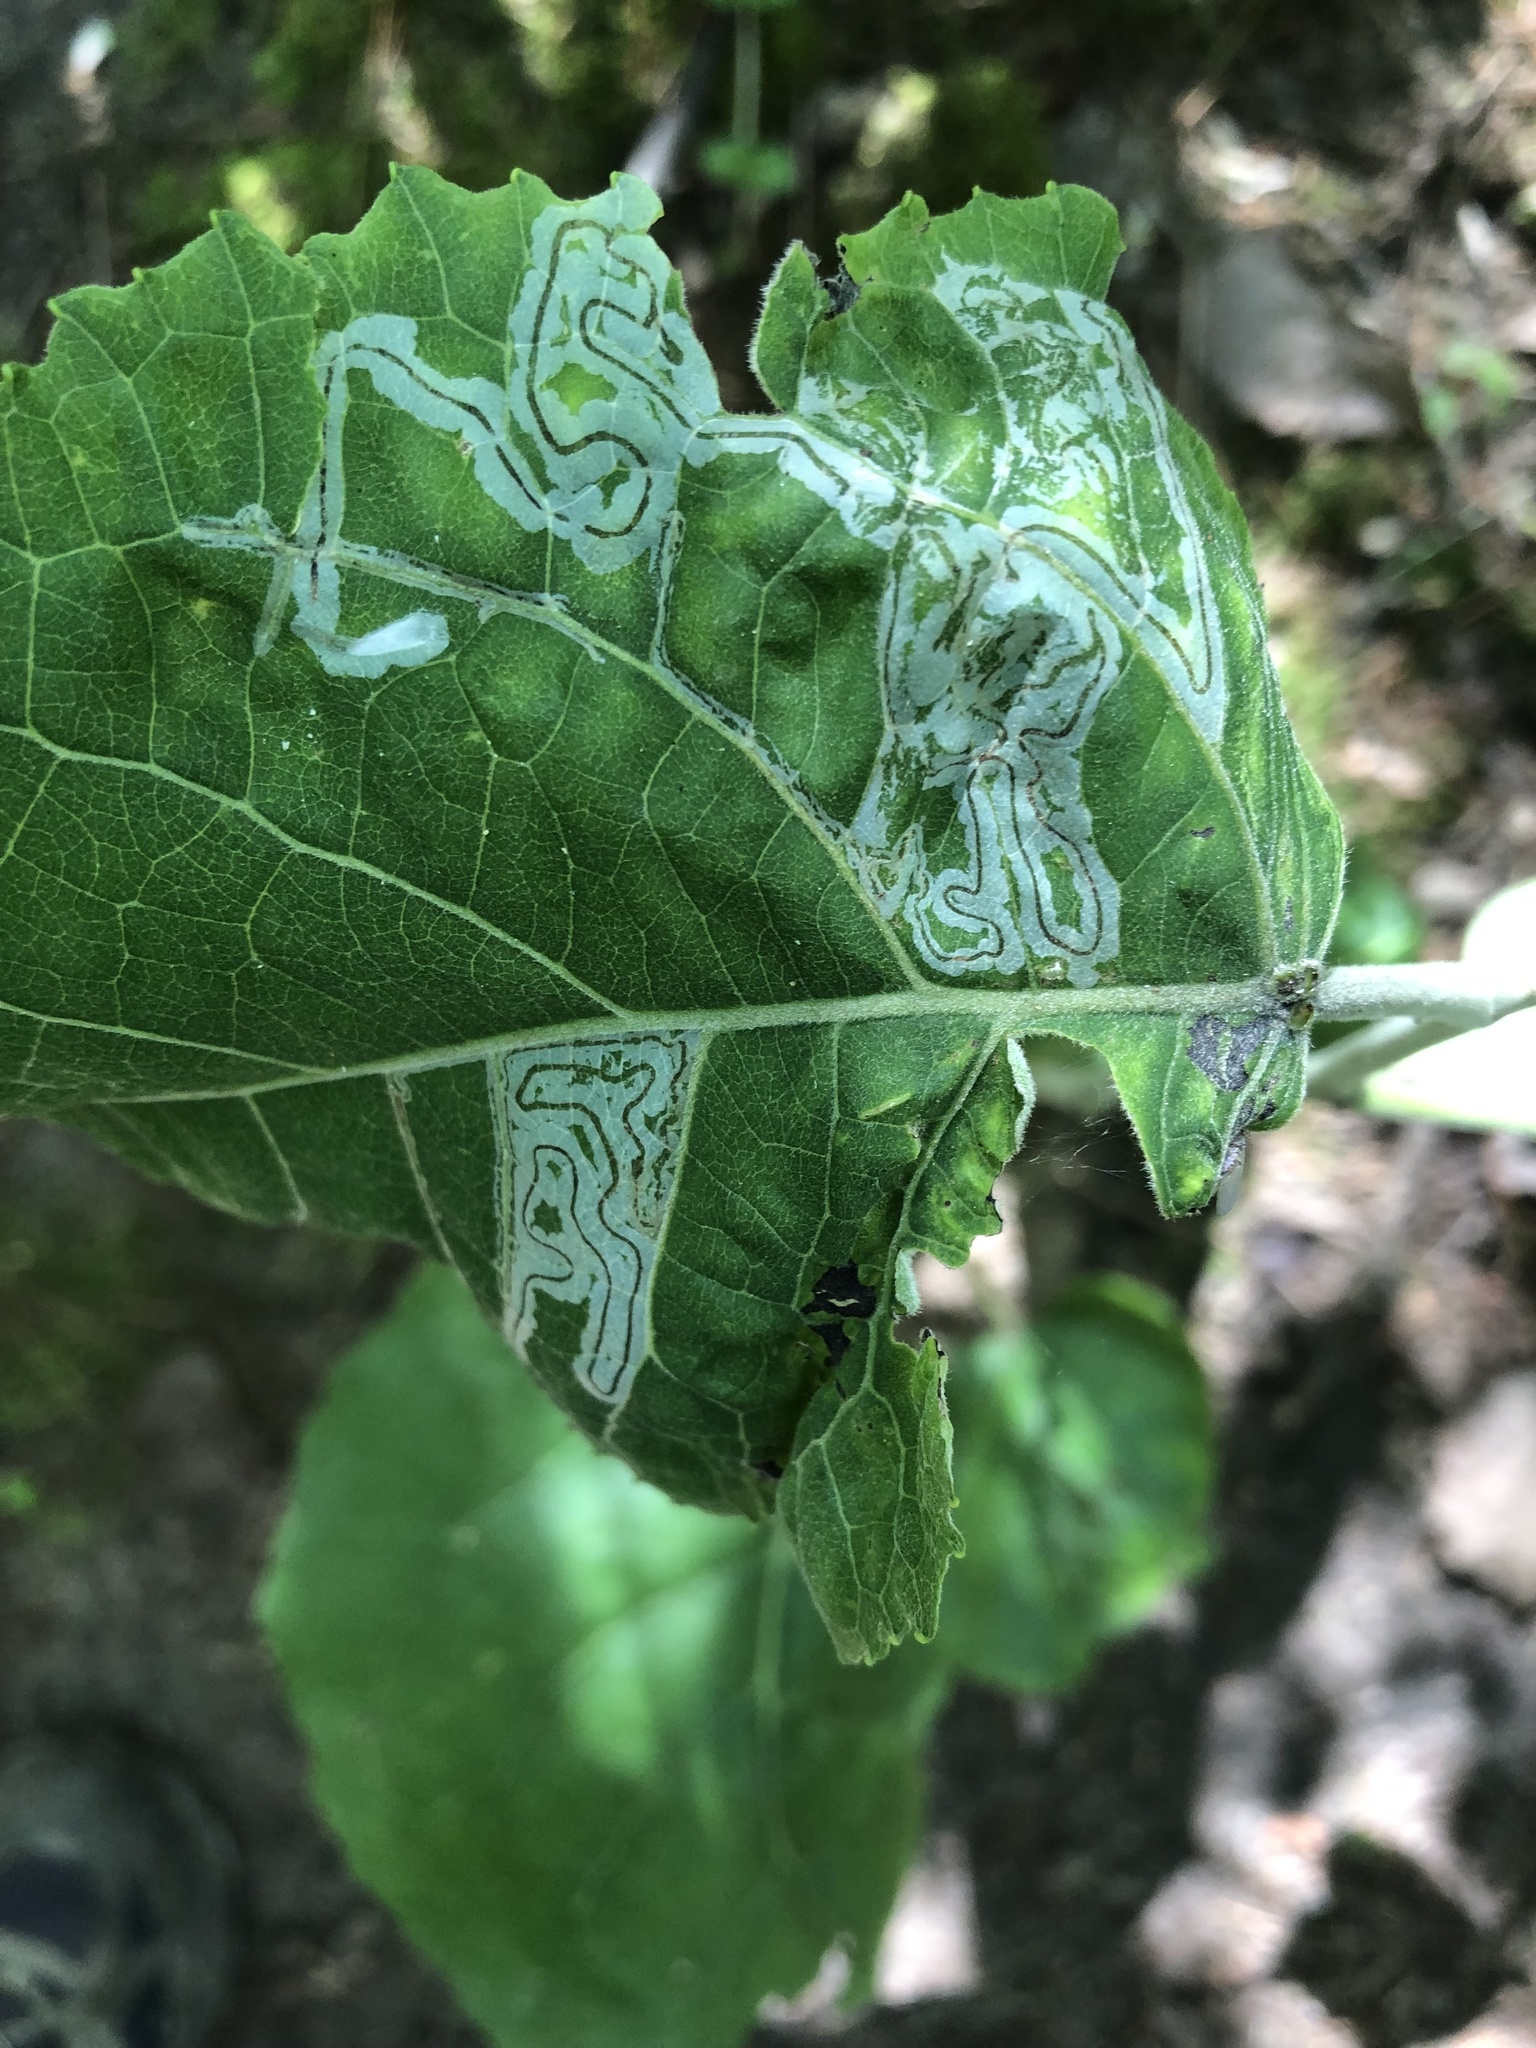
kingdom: Animalia
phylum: Arthropoda
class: Insecta
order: Lepidoptera
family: Gracillariidae
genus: Phyllocnistis
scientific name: Phyllocnistis populiella
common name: Aspen serpentine leafminer moth
